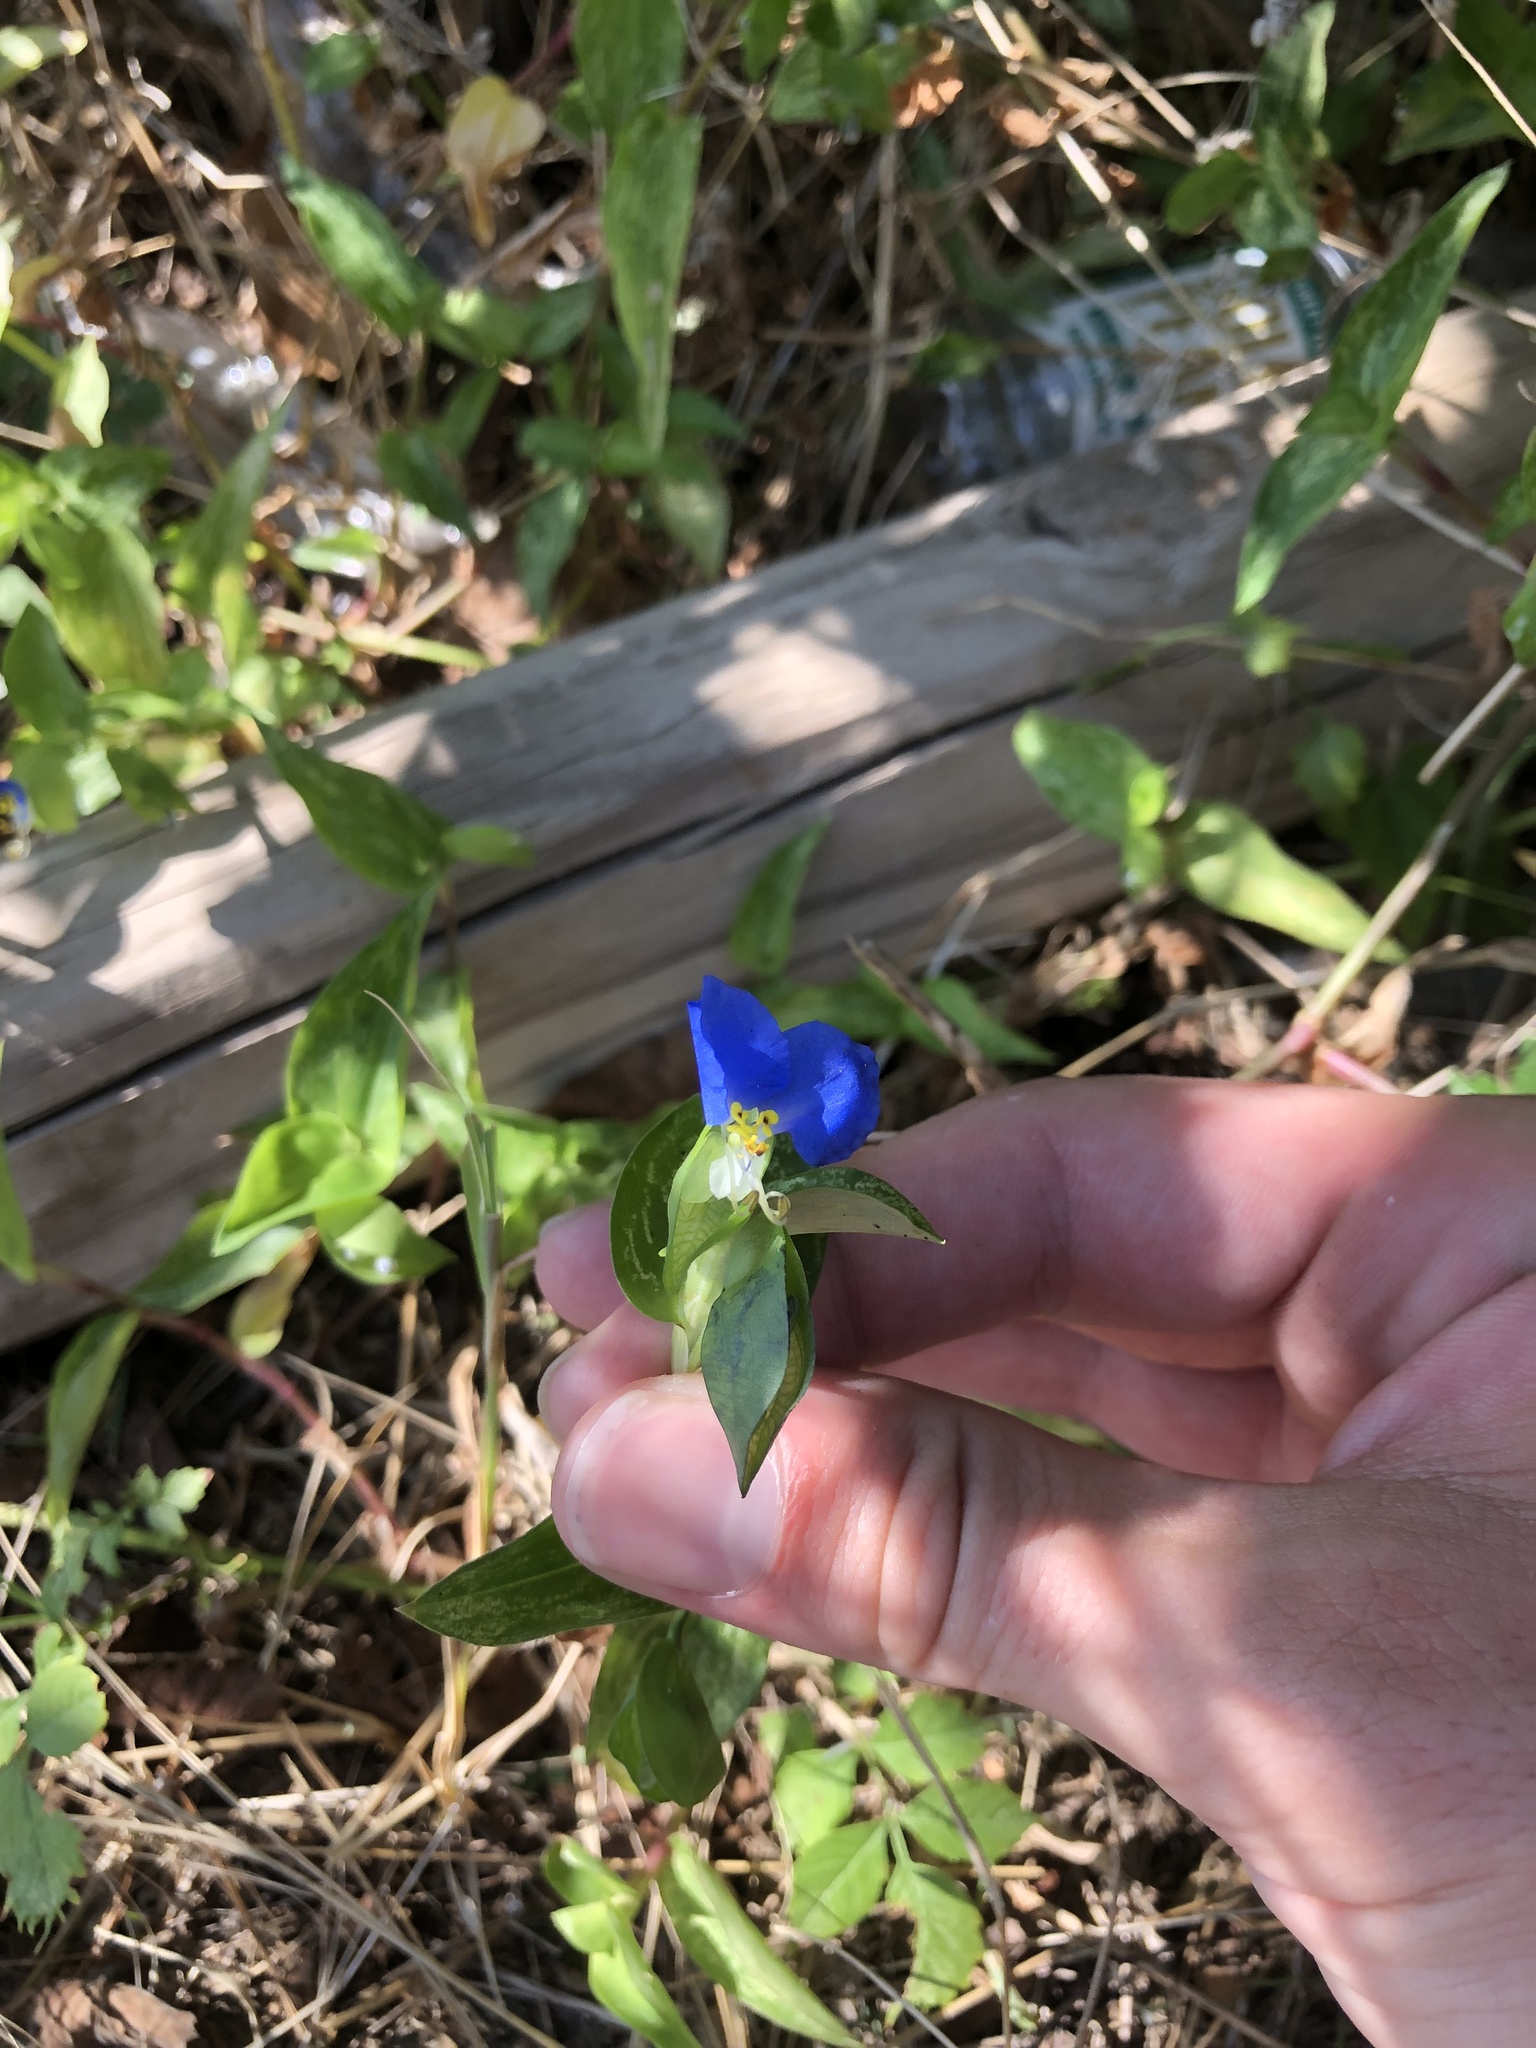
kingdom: Plantae
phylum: Tracheophyta
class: Liliopsida
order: Commelinales
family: Commelinaceae
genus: Commelina
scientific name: Commelina communis
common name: Asiatic dayflower
